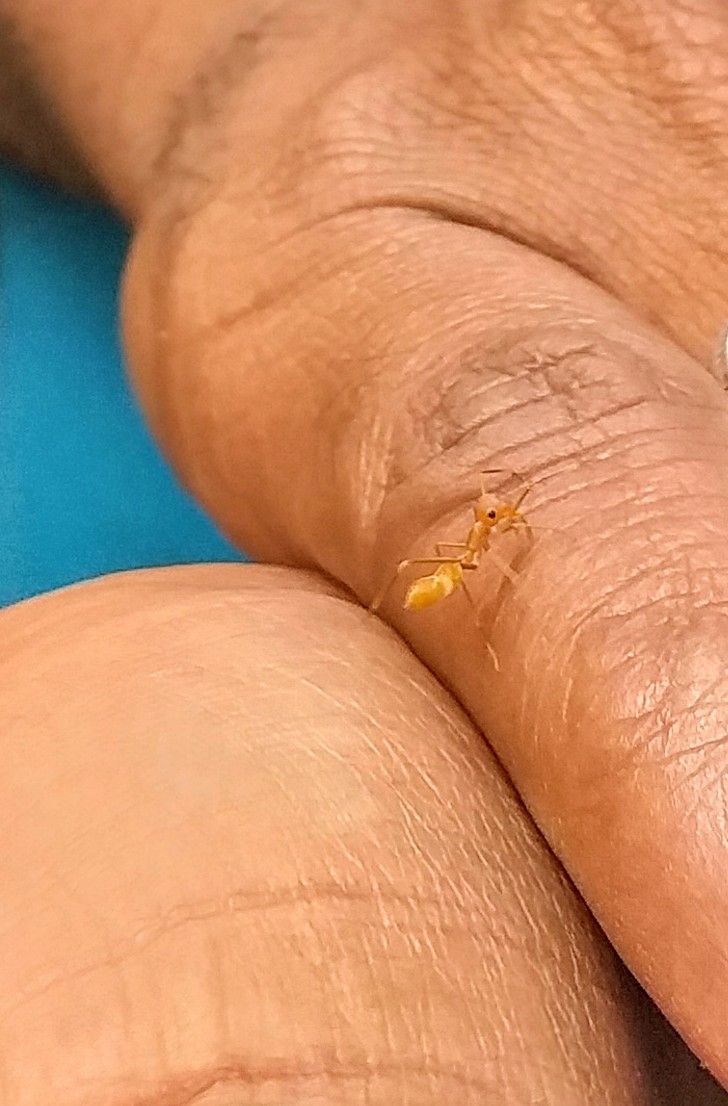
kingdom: Animalia
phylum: Arthropoda
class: Arachnida
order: Araneae
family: Salticidae
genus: Myrmaplata
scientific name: Myrmaplata plataleoides
